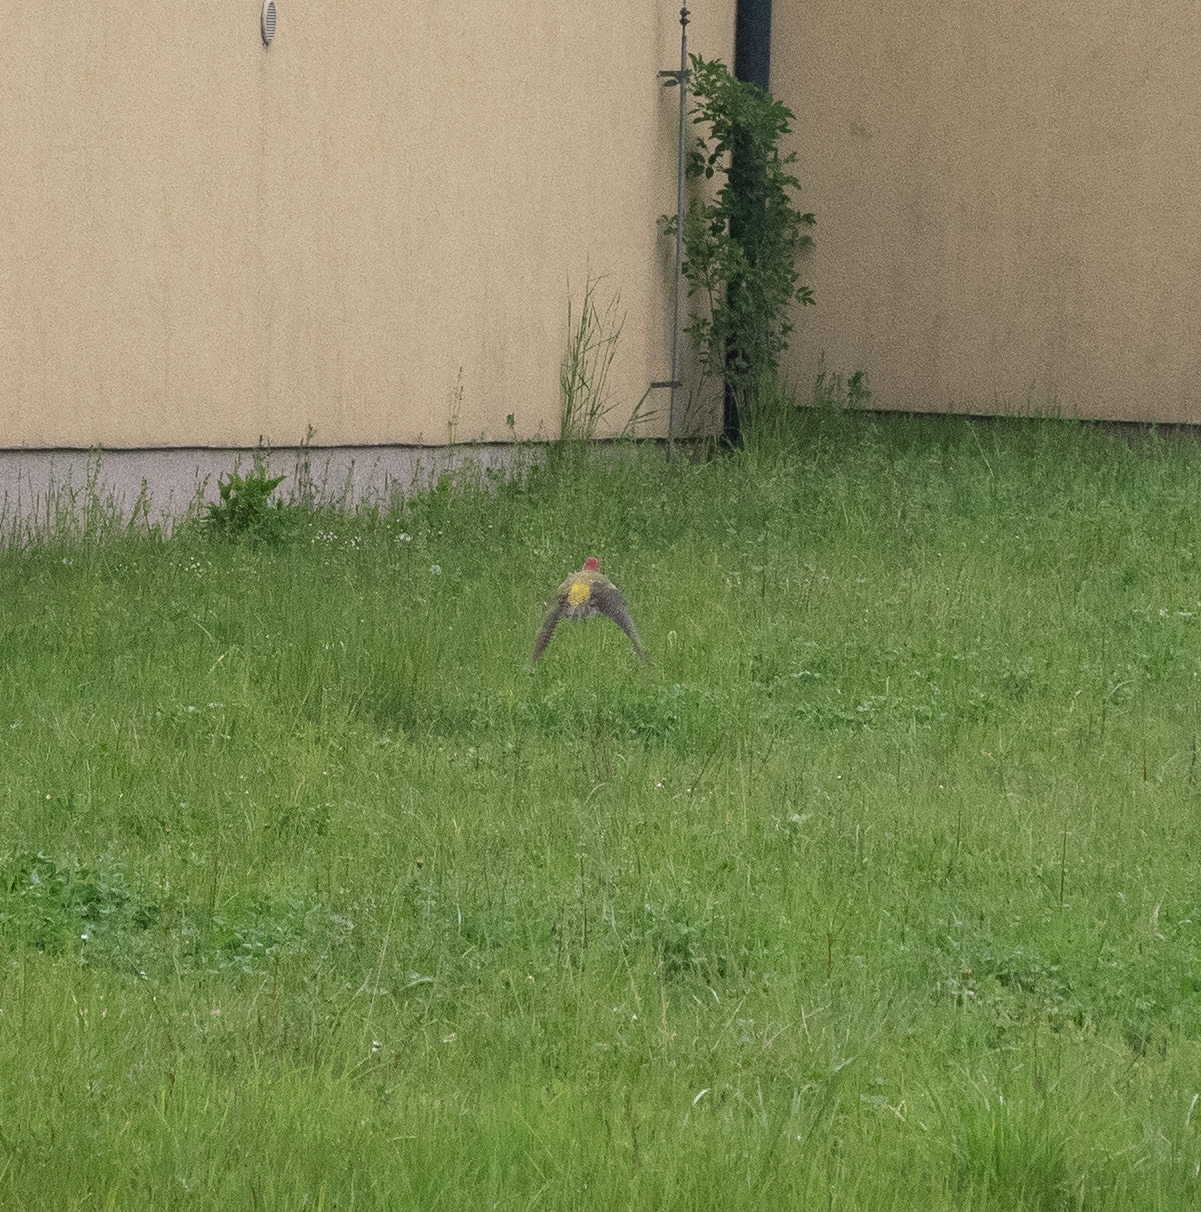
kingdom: Animalia
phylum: Chordata
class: Aves
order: Piciformes
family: Picidae
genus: Picus
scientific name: Picus viridis
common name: European green woodpecker
